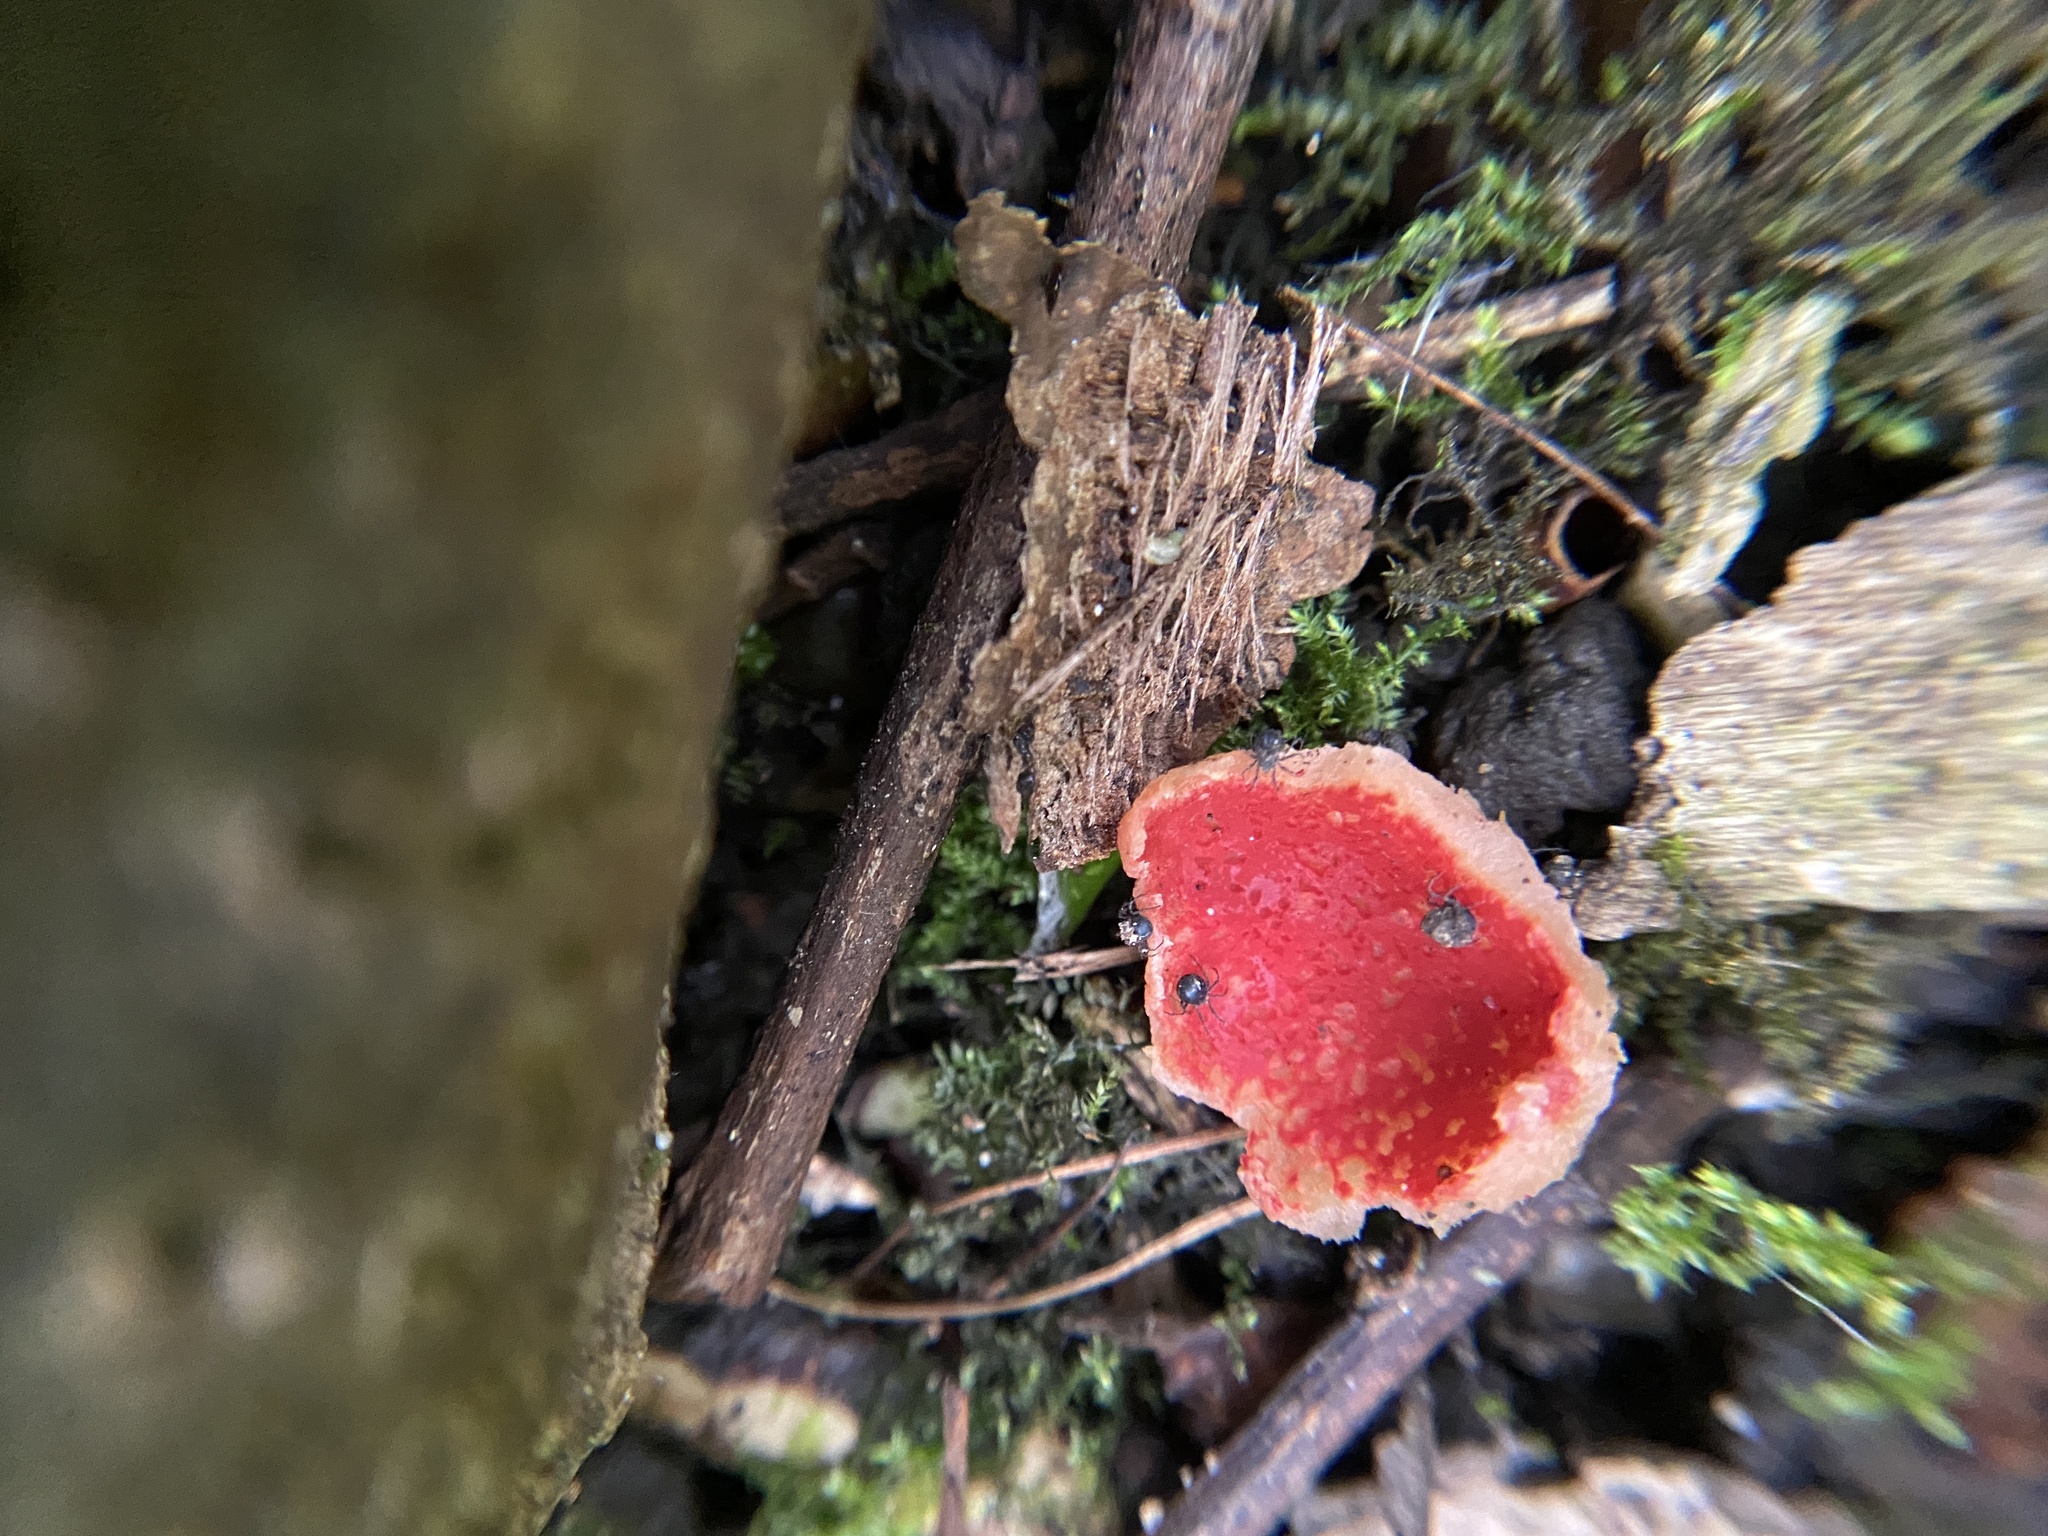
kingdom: Fungi
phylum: Ascomycota
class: Pezizomycetes
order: Pezizales
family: Sarcoscyphaceae
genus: Sarcoscypha
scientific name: Sarcoscypha
